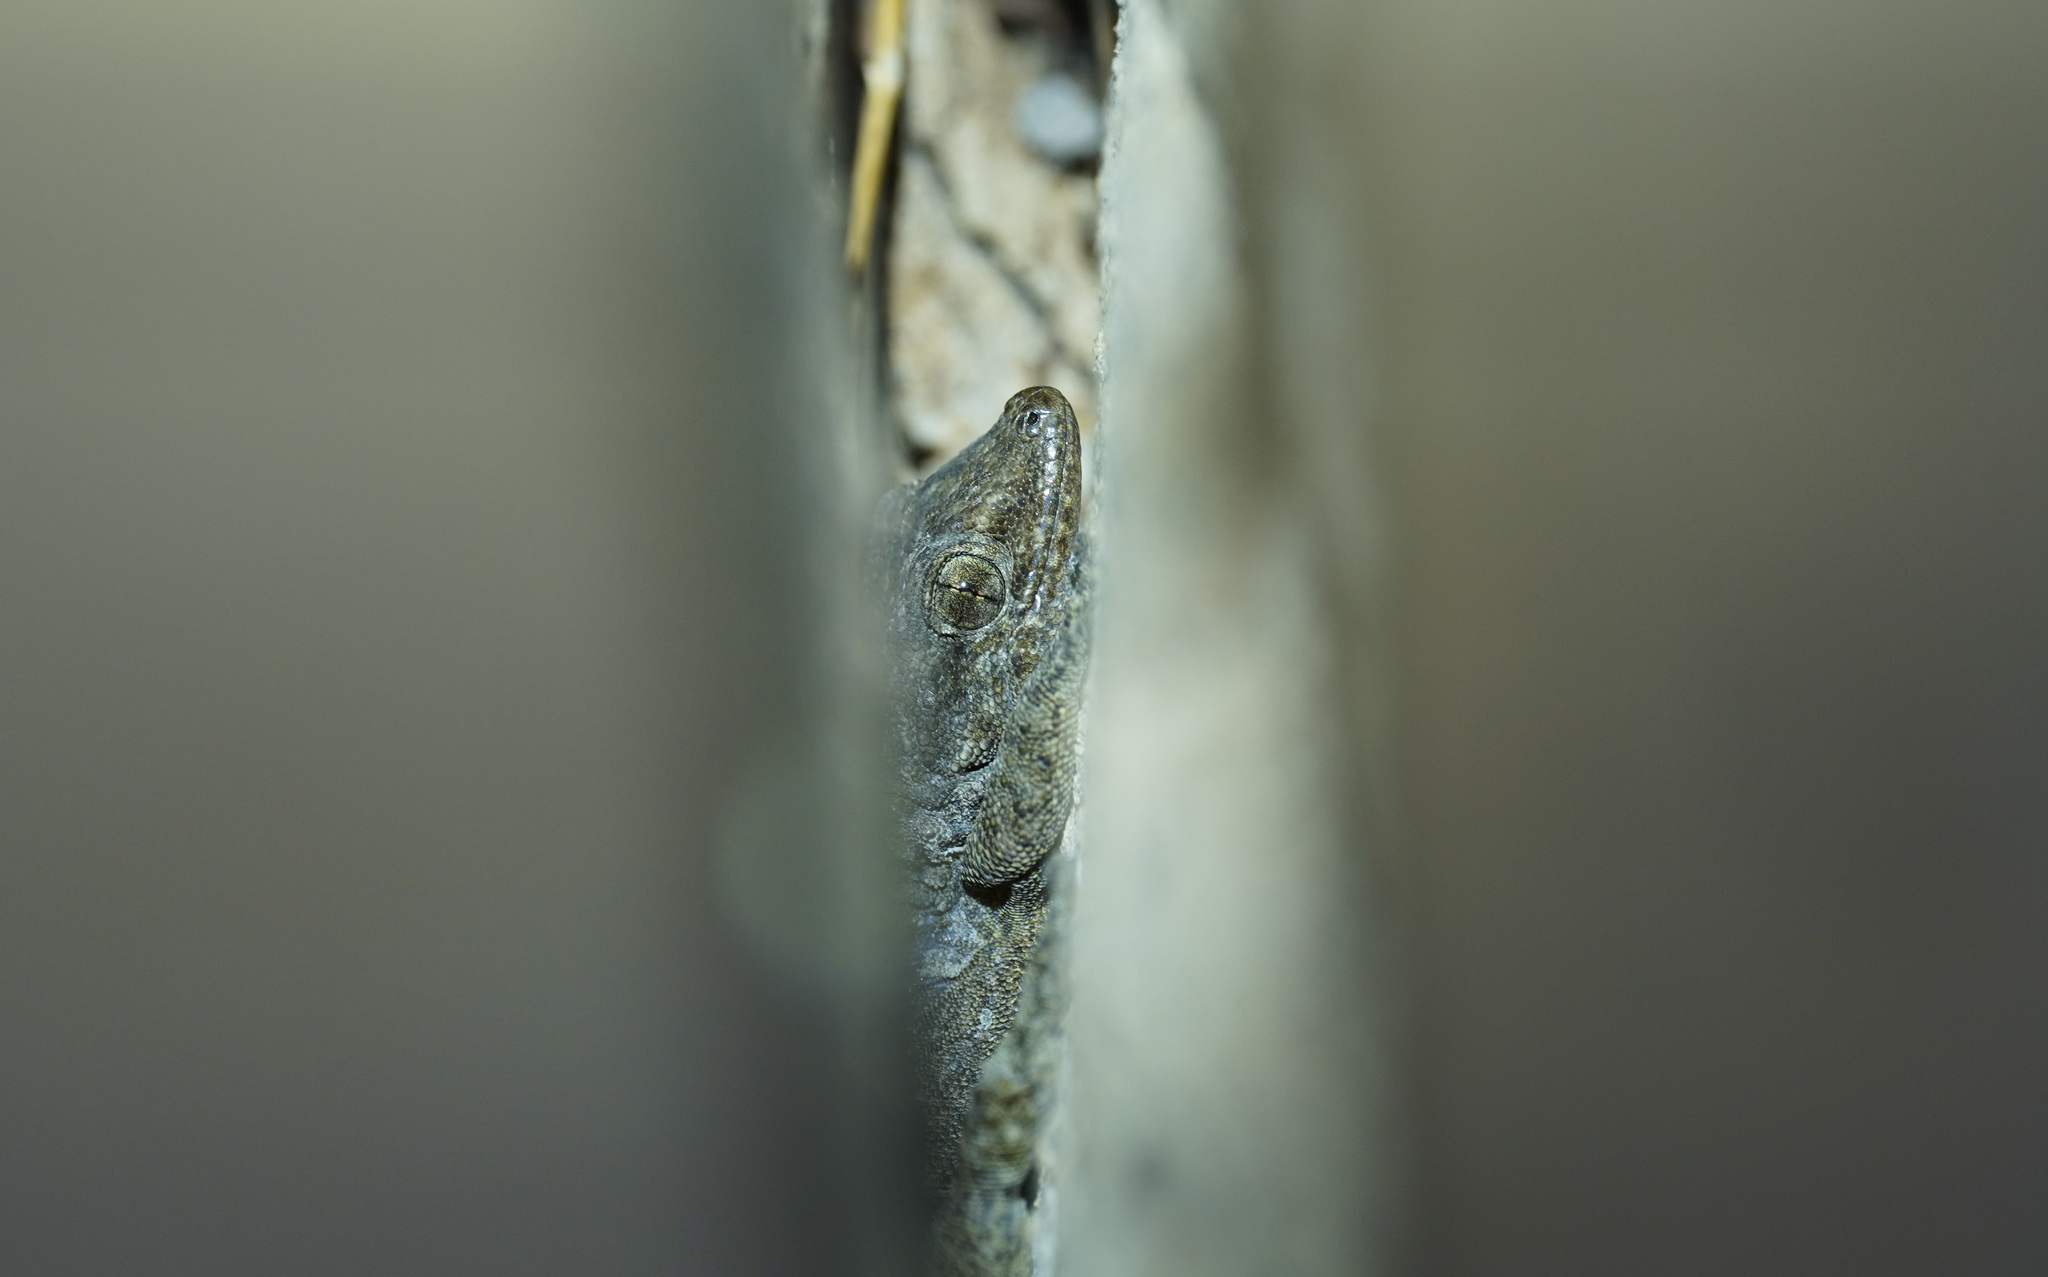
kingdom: Animalia
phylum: Chordata
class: Squamata
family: Phyllodactylidae
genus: Tarentola
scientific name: Tarentola delalandii
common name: Tenerife wall gecko
